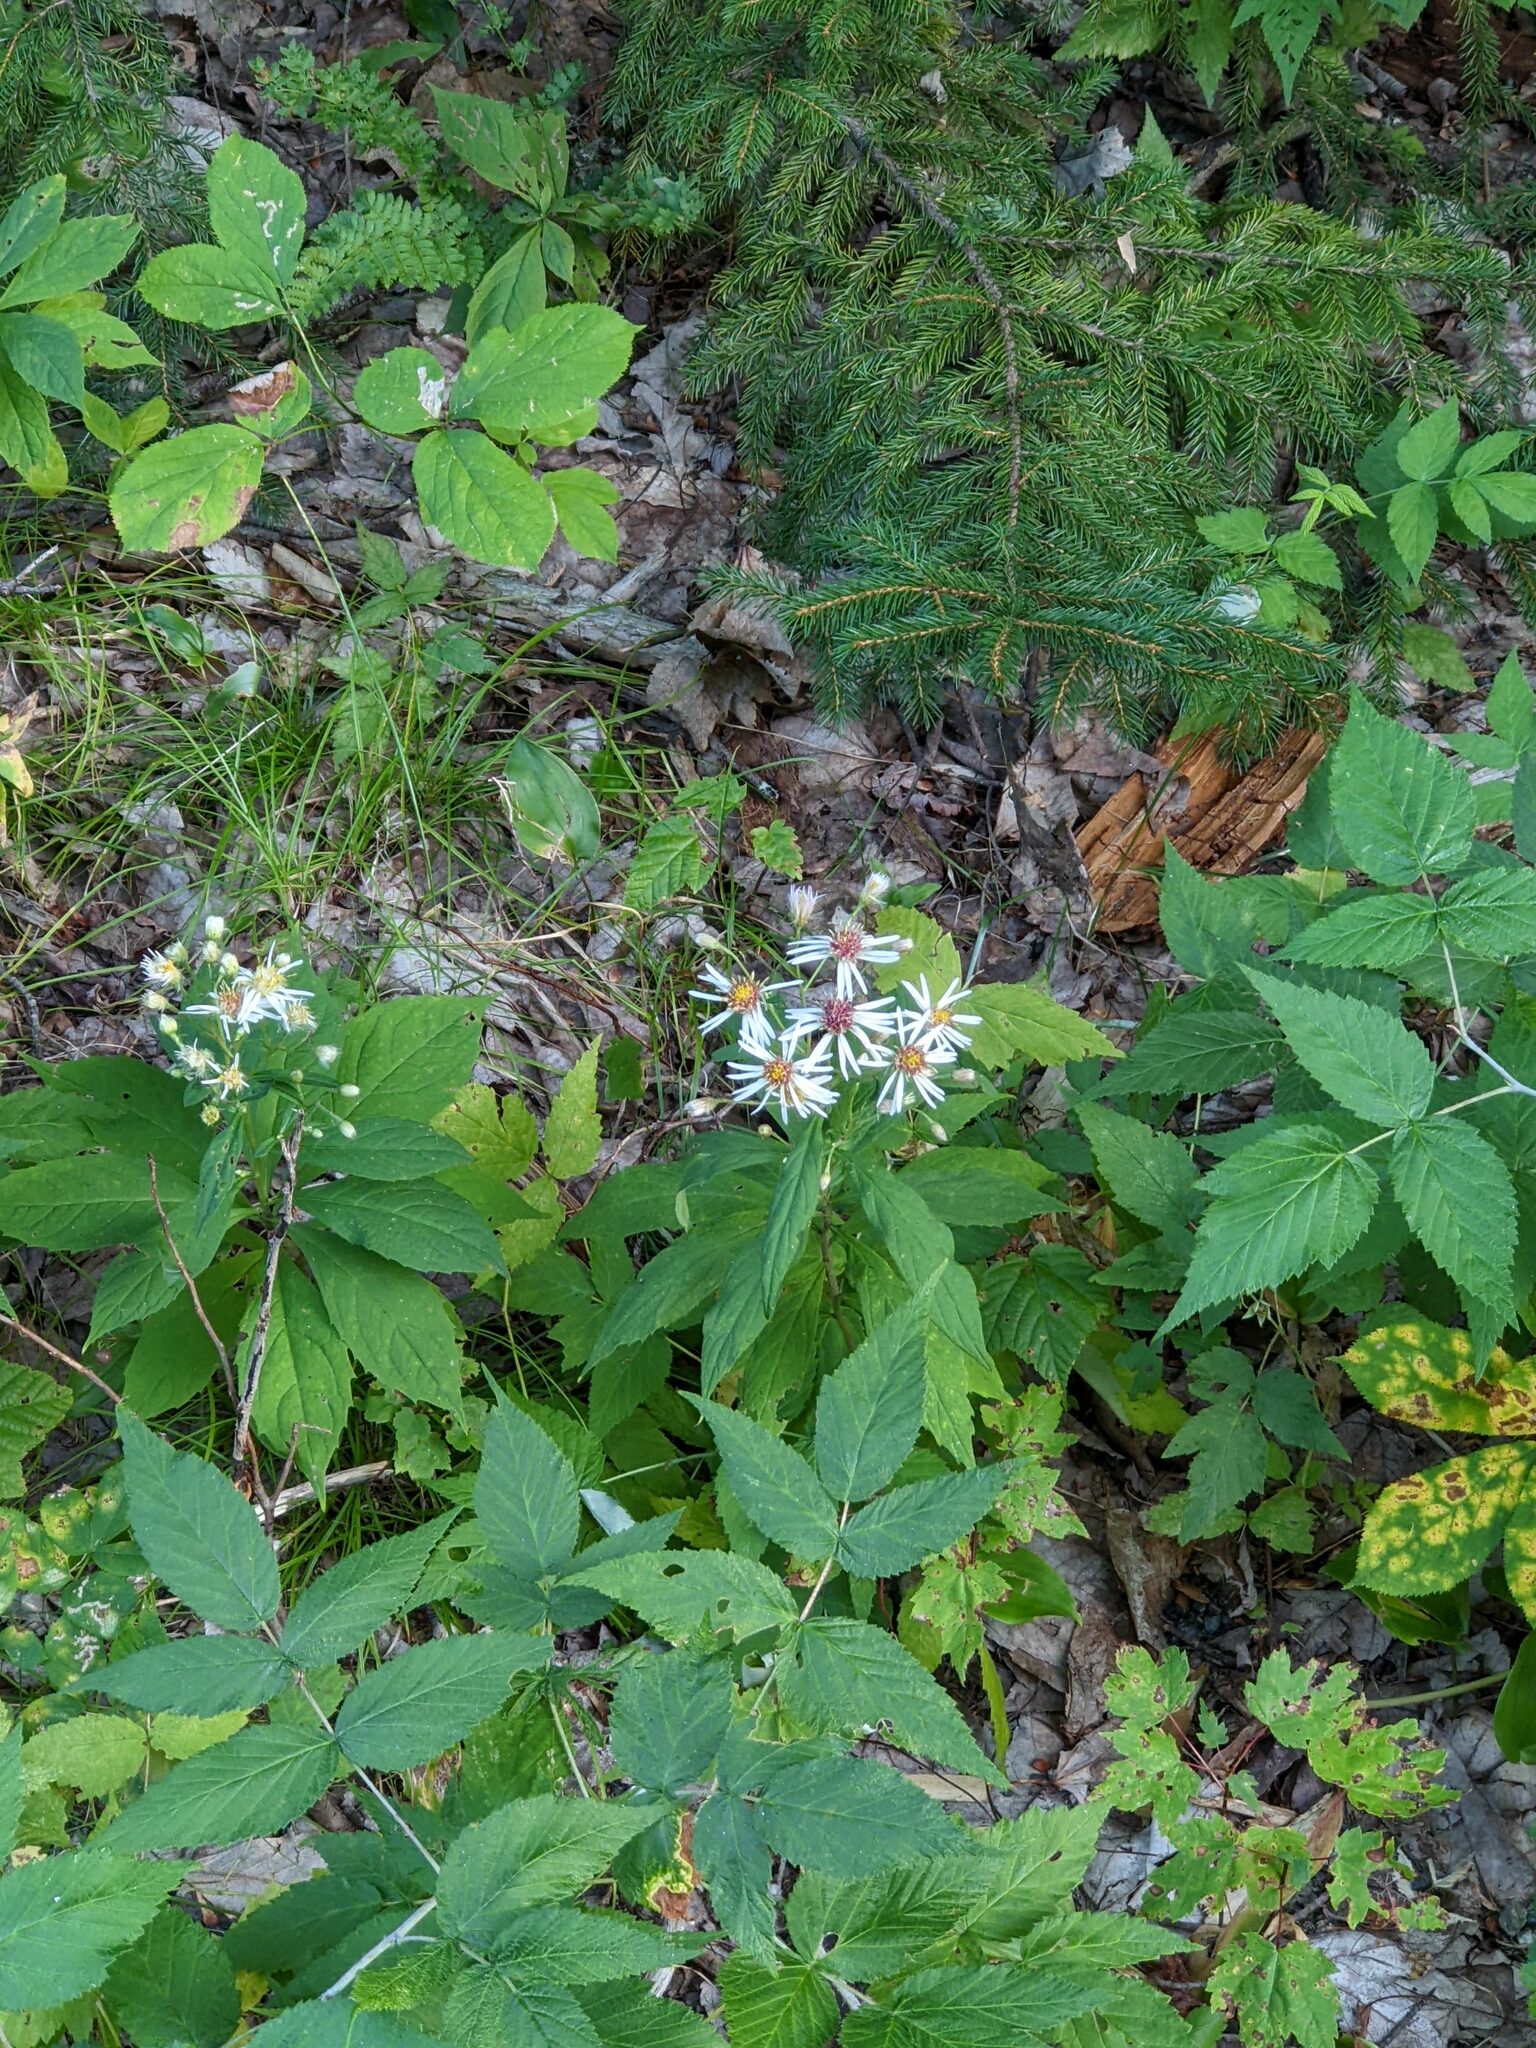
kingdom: Plantae
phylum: Tracheophyta
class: Magnoliopsida
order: Asterales
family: Asteraceae
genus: Oclemena
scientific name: Oclemena acuminata
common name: Mountain aster
